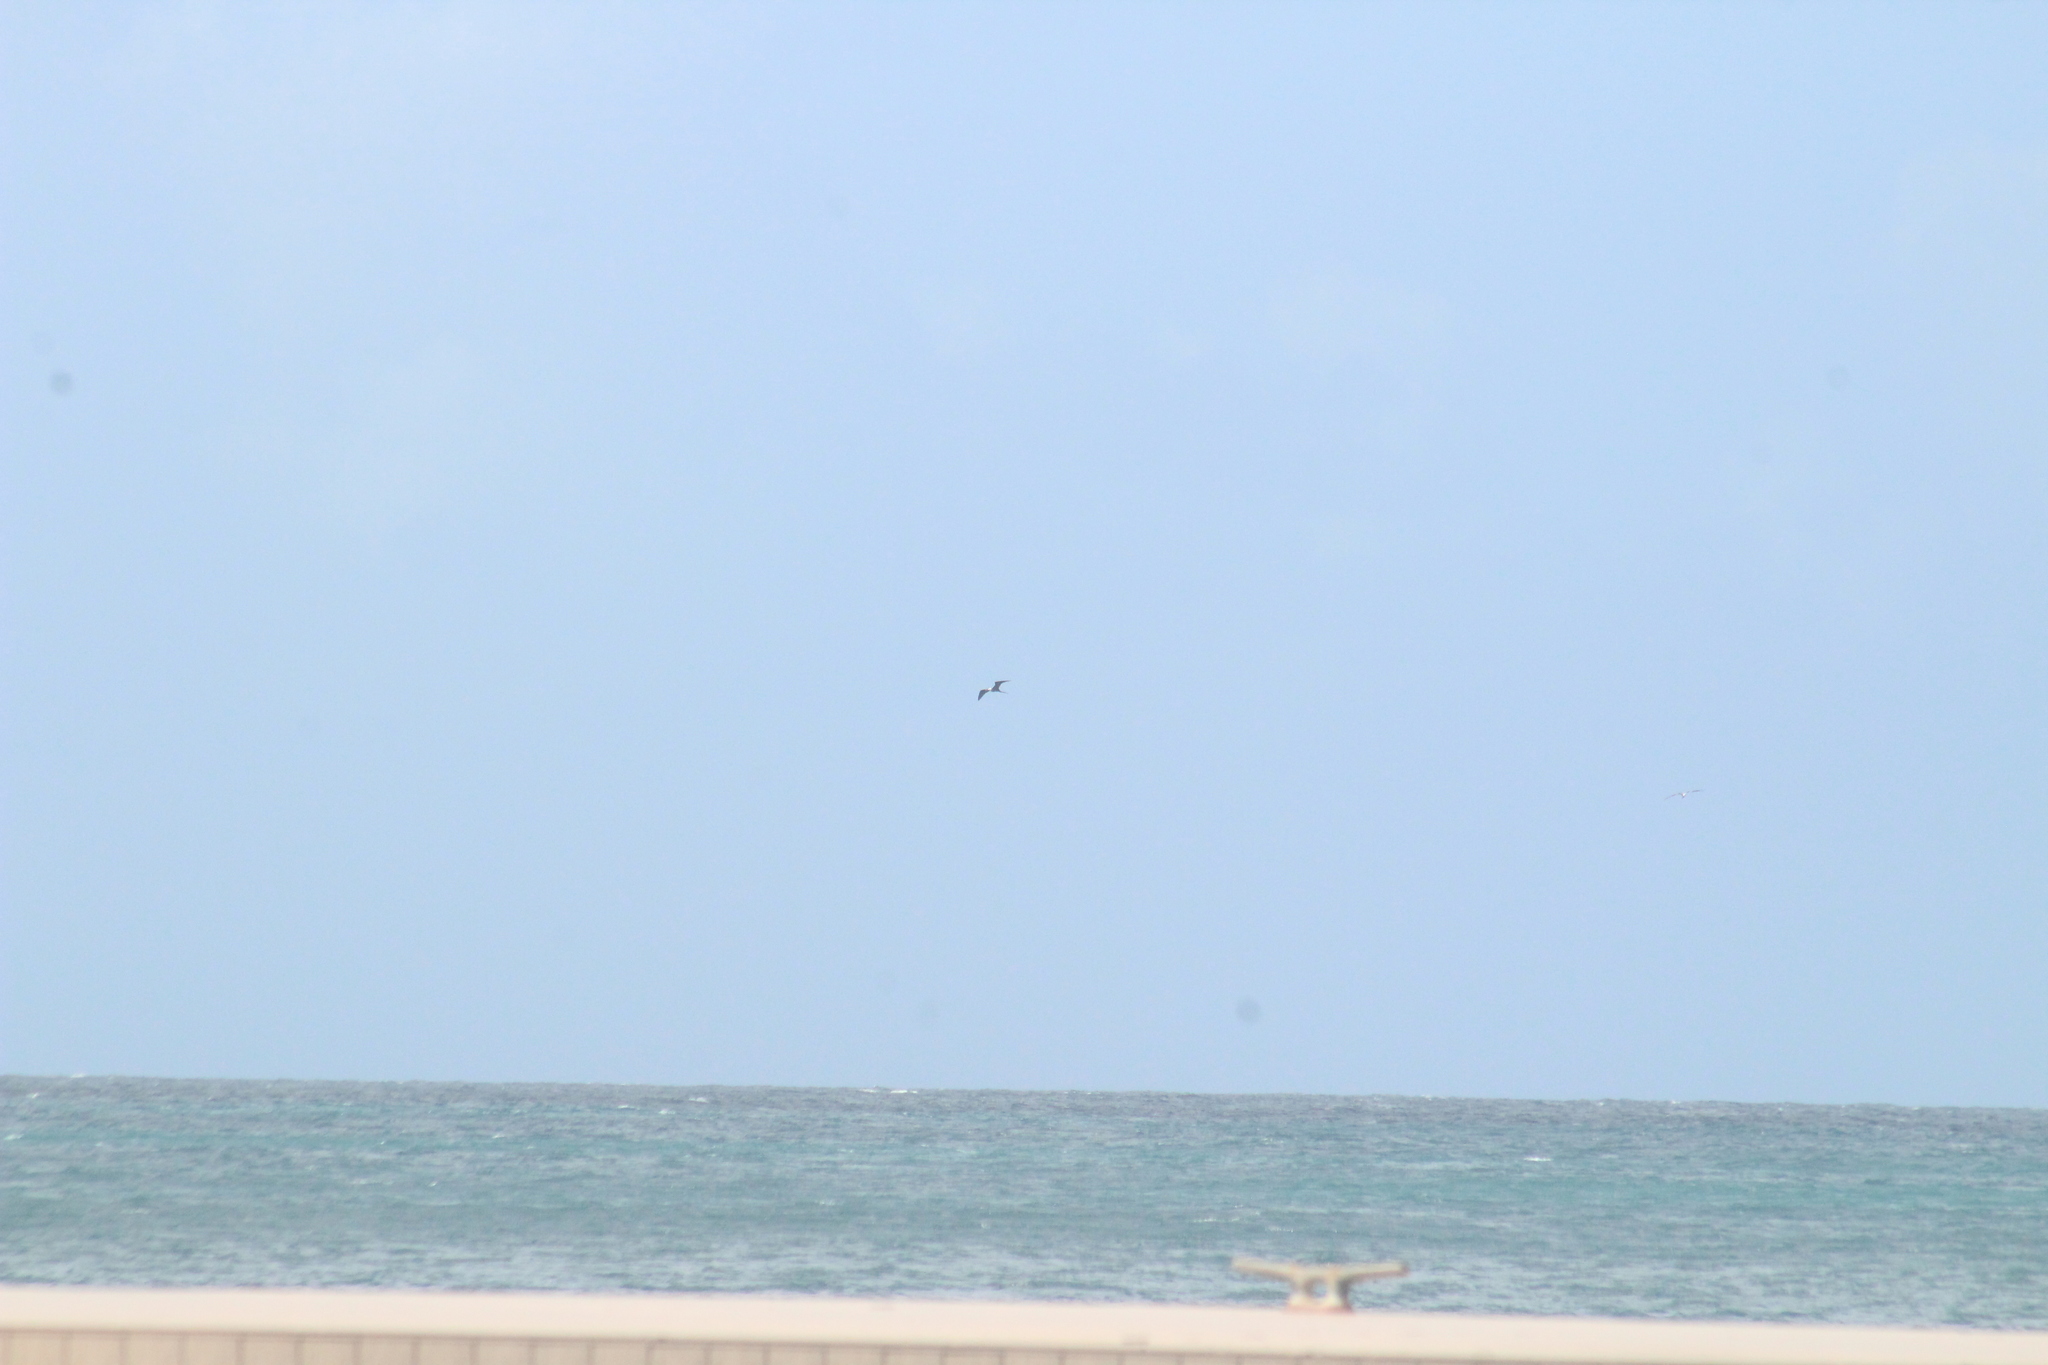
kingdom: Animalia
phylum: Chordata
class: Aves
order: Suliformes
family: Fregatidae
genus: Fregata
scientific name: Fregata magnificens
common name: Magnificent frigatebird
